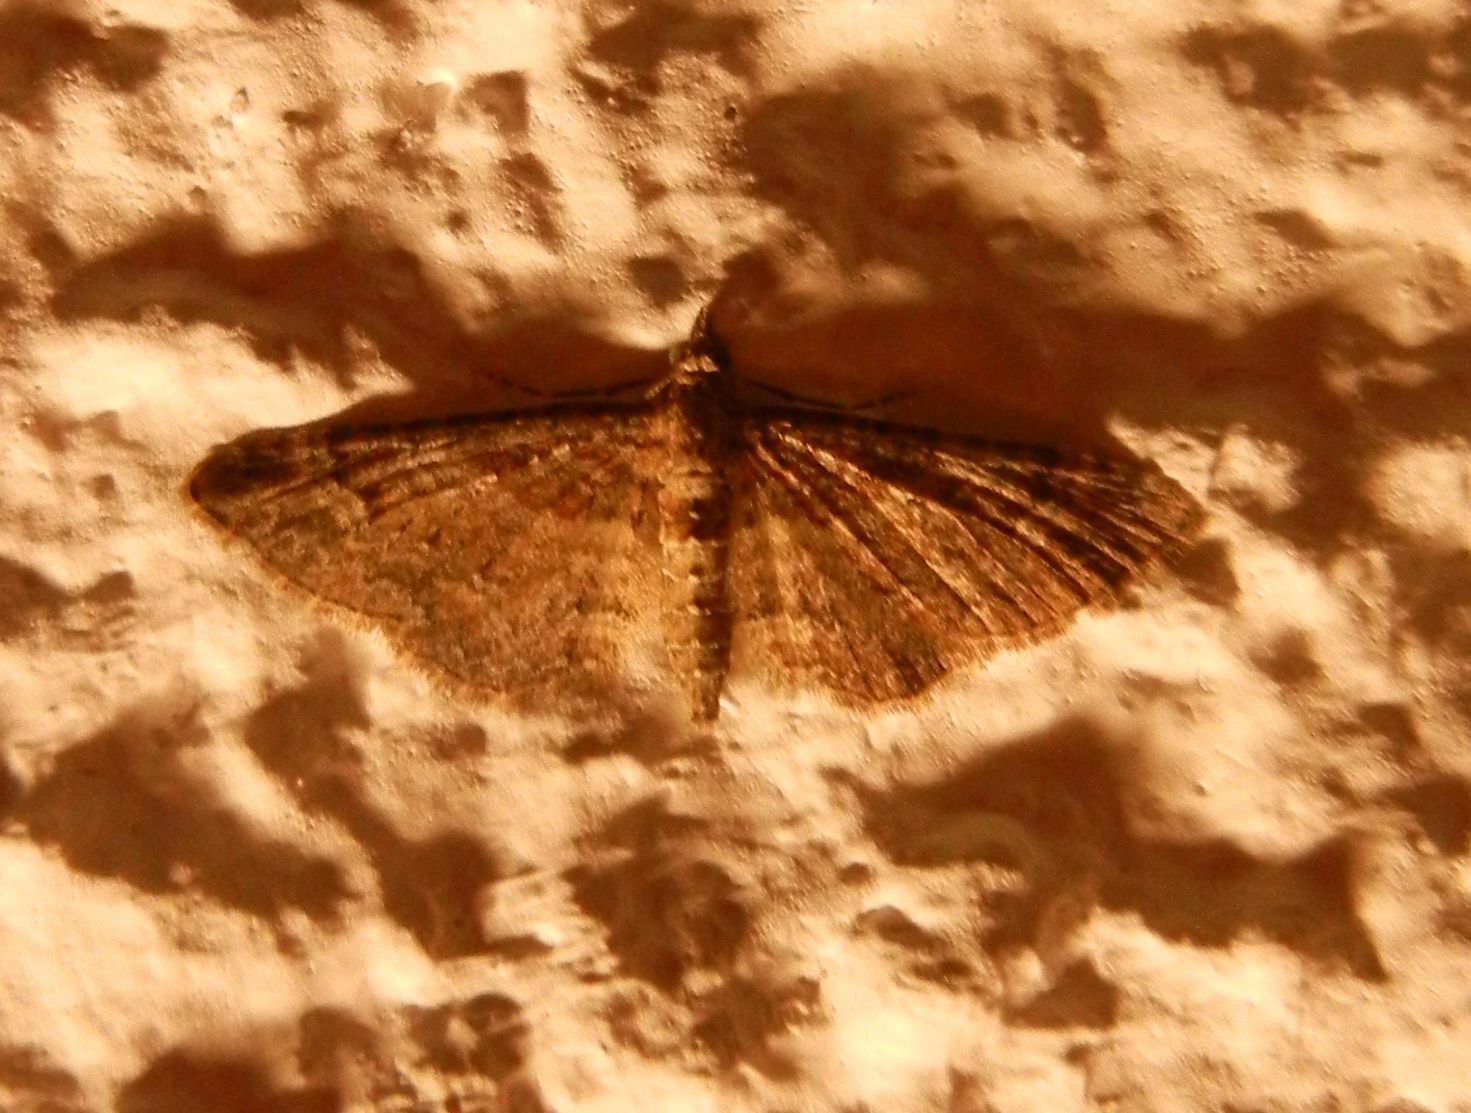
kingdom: Animalia
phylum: Arthropoda
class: Insecta
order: Lepidoptera
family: Geometridae
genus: Gymnoscelis
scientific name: Gymnoscelis rufifasciata
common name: Double-striped pug
